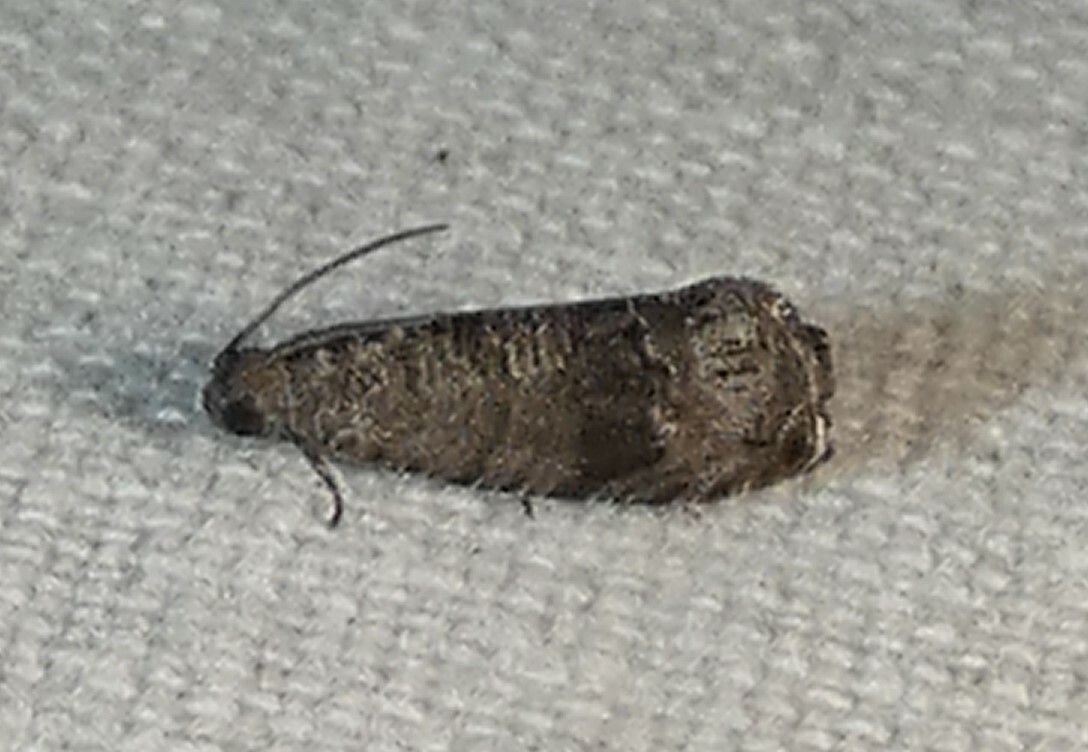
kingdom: Animalia
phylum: Arthropoda
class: Insecta
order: Lepidoptera
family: Noctuidae
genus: Aspila
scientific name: Aspila
